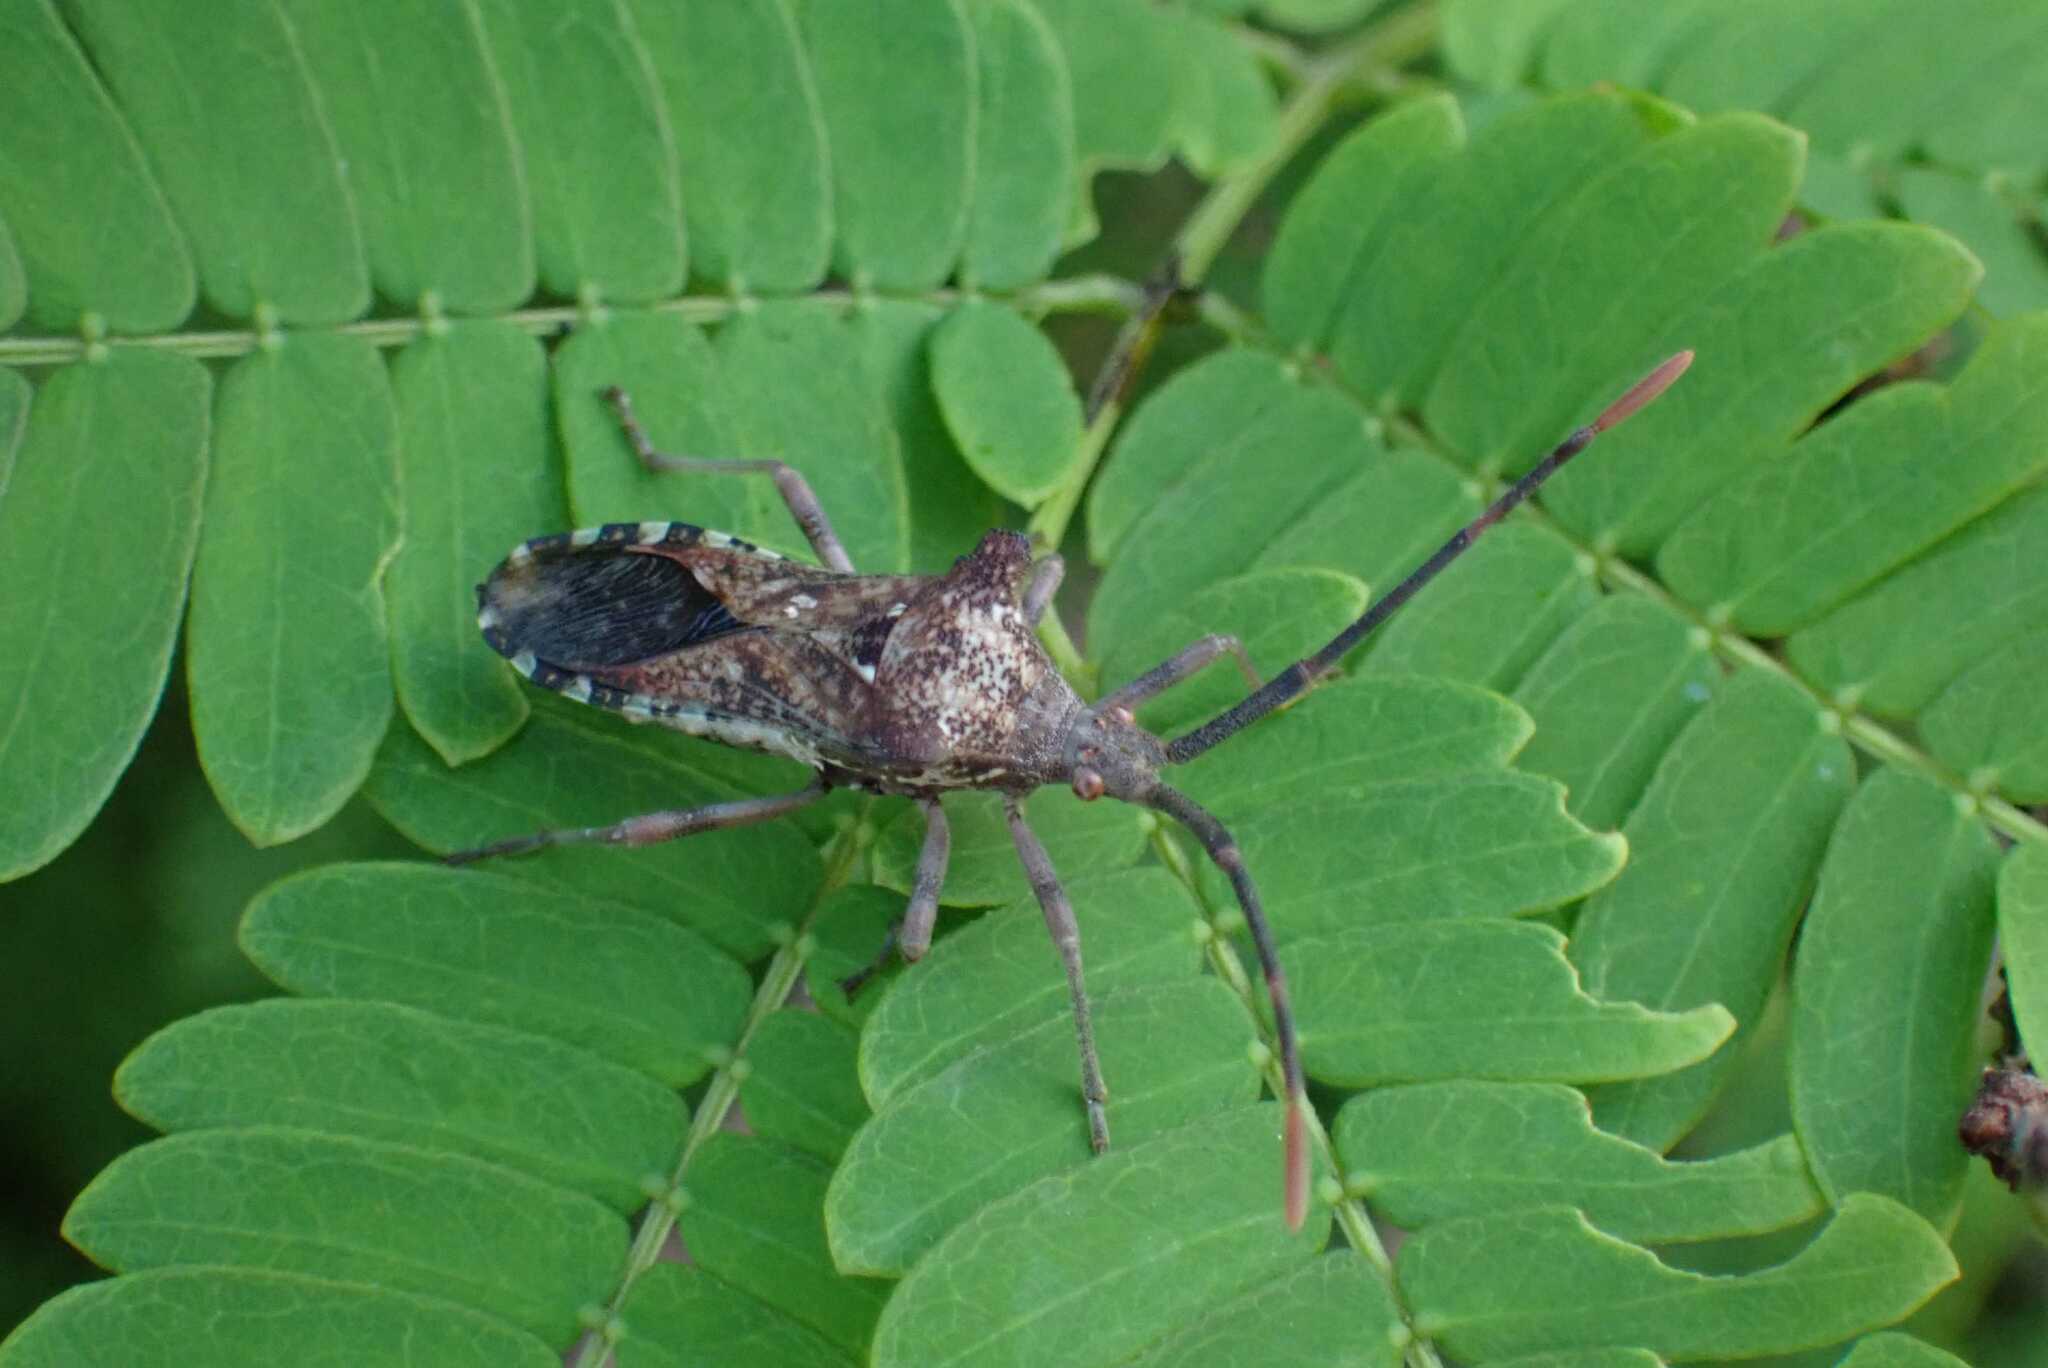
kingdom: Animalia
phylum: Arthropoda
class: Insecta
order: Hemiptera
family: Coreidae
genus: Prismatocerus
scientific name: Prismatocerus auriculatus
